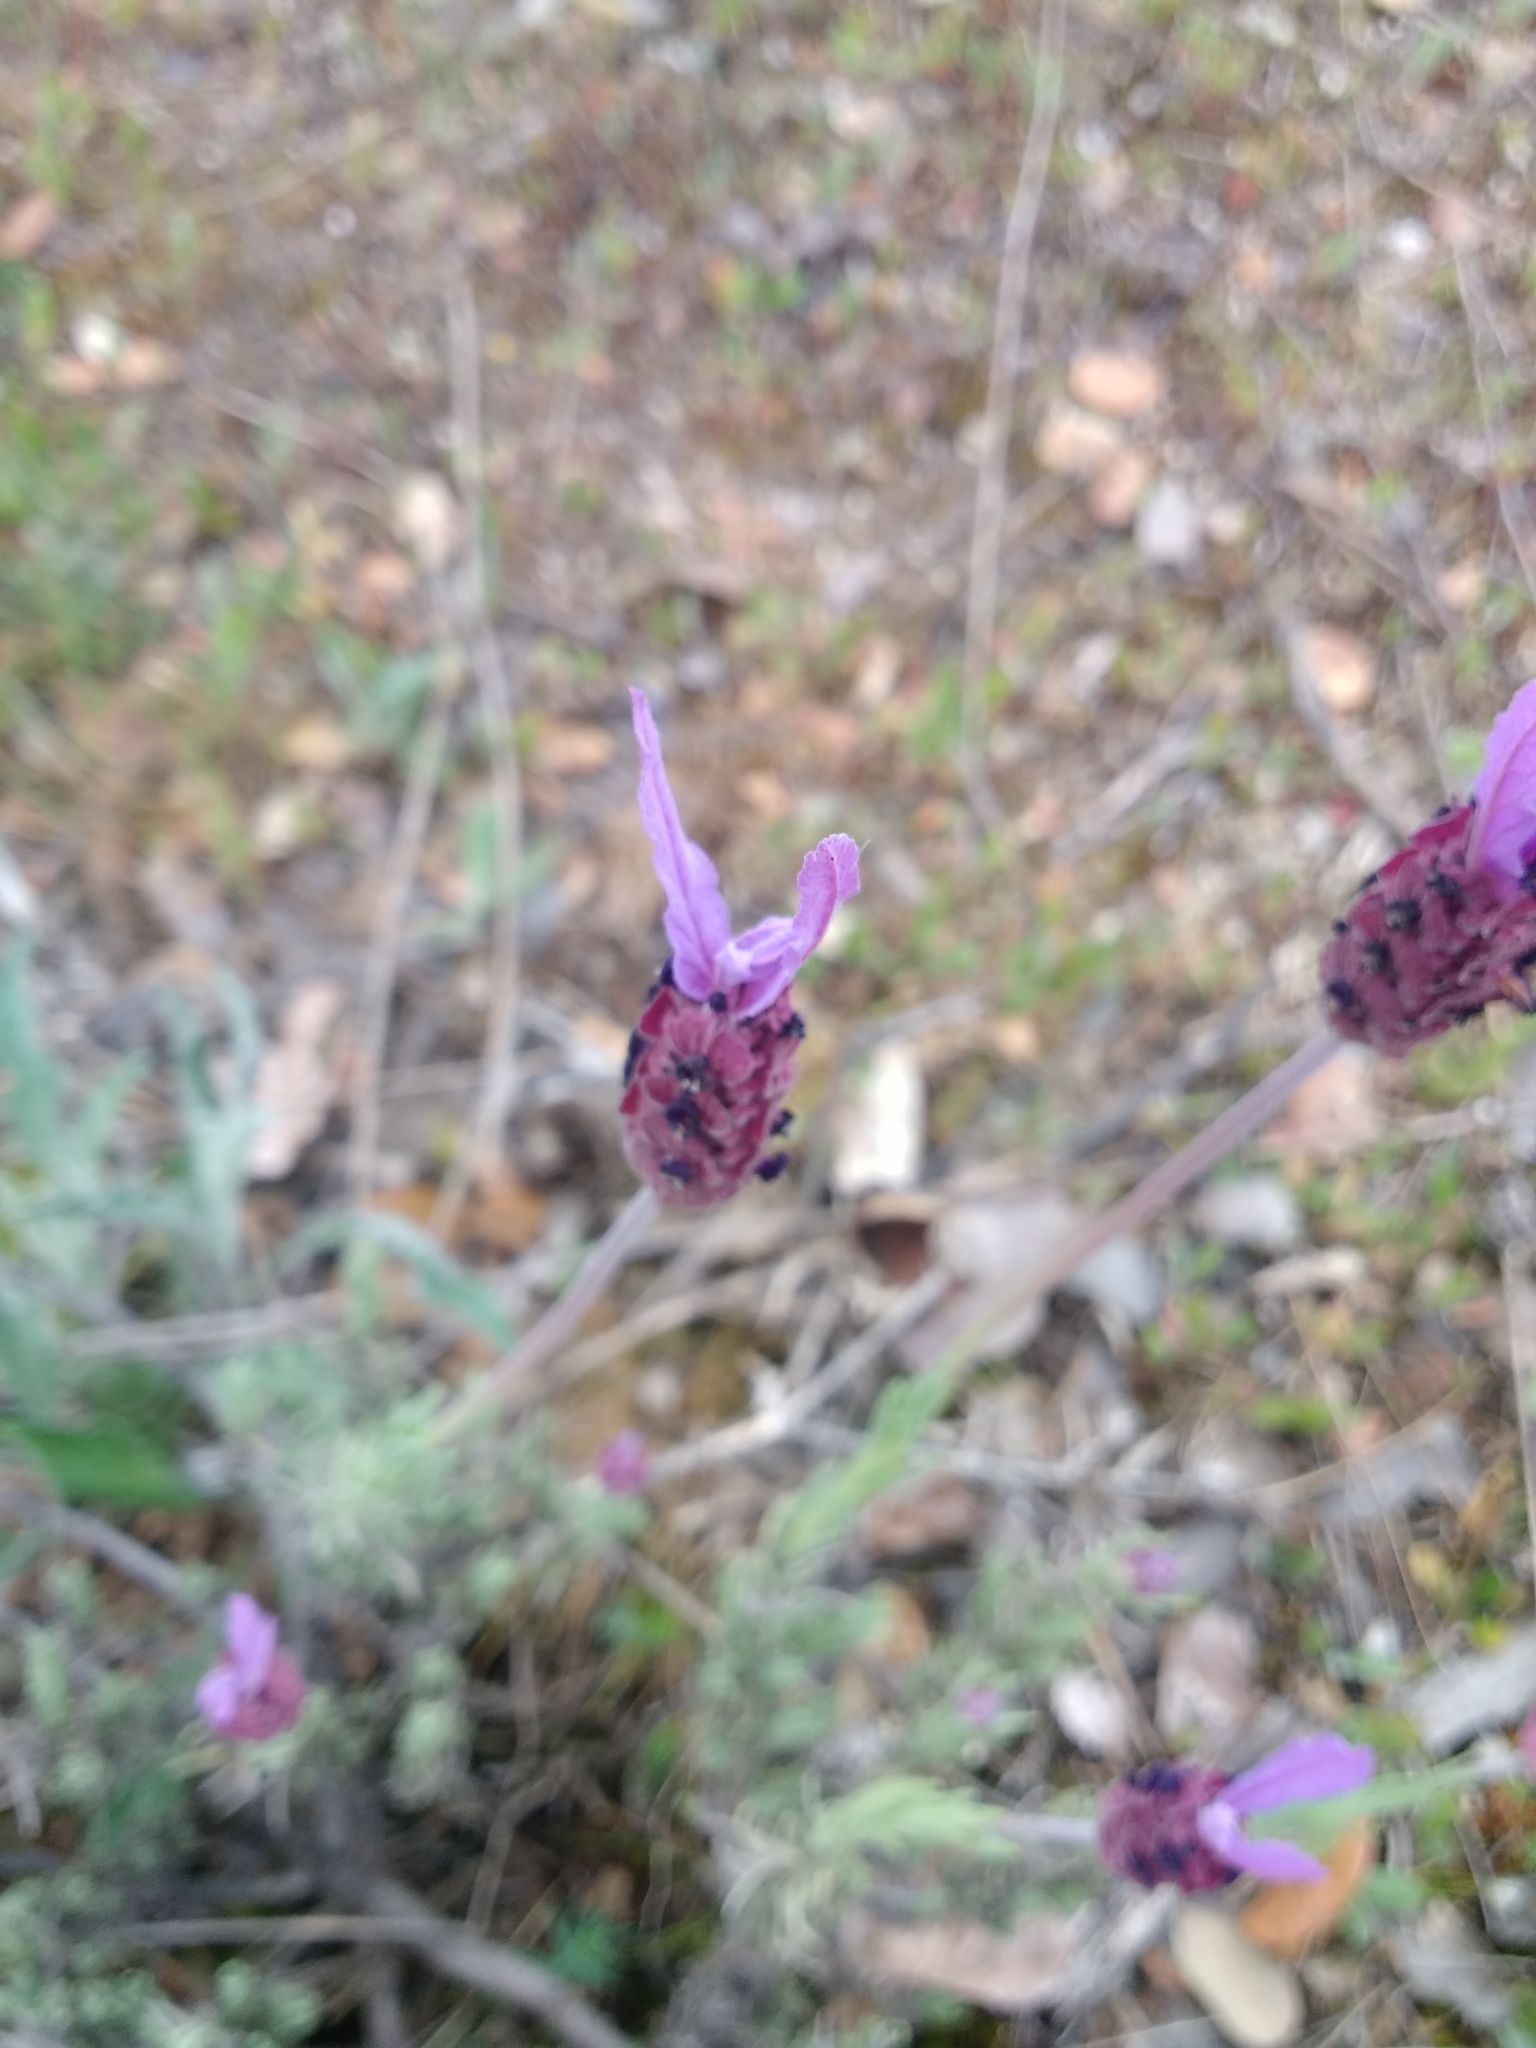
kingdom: Plantae
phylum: Tracheophyta
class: Magnoliopsida
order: Lamiales
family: Lamiaceae
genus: Lavandula
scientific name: Lavandula pedunculata
